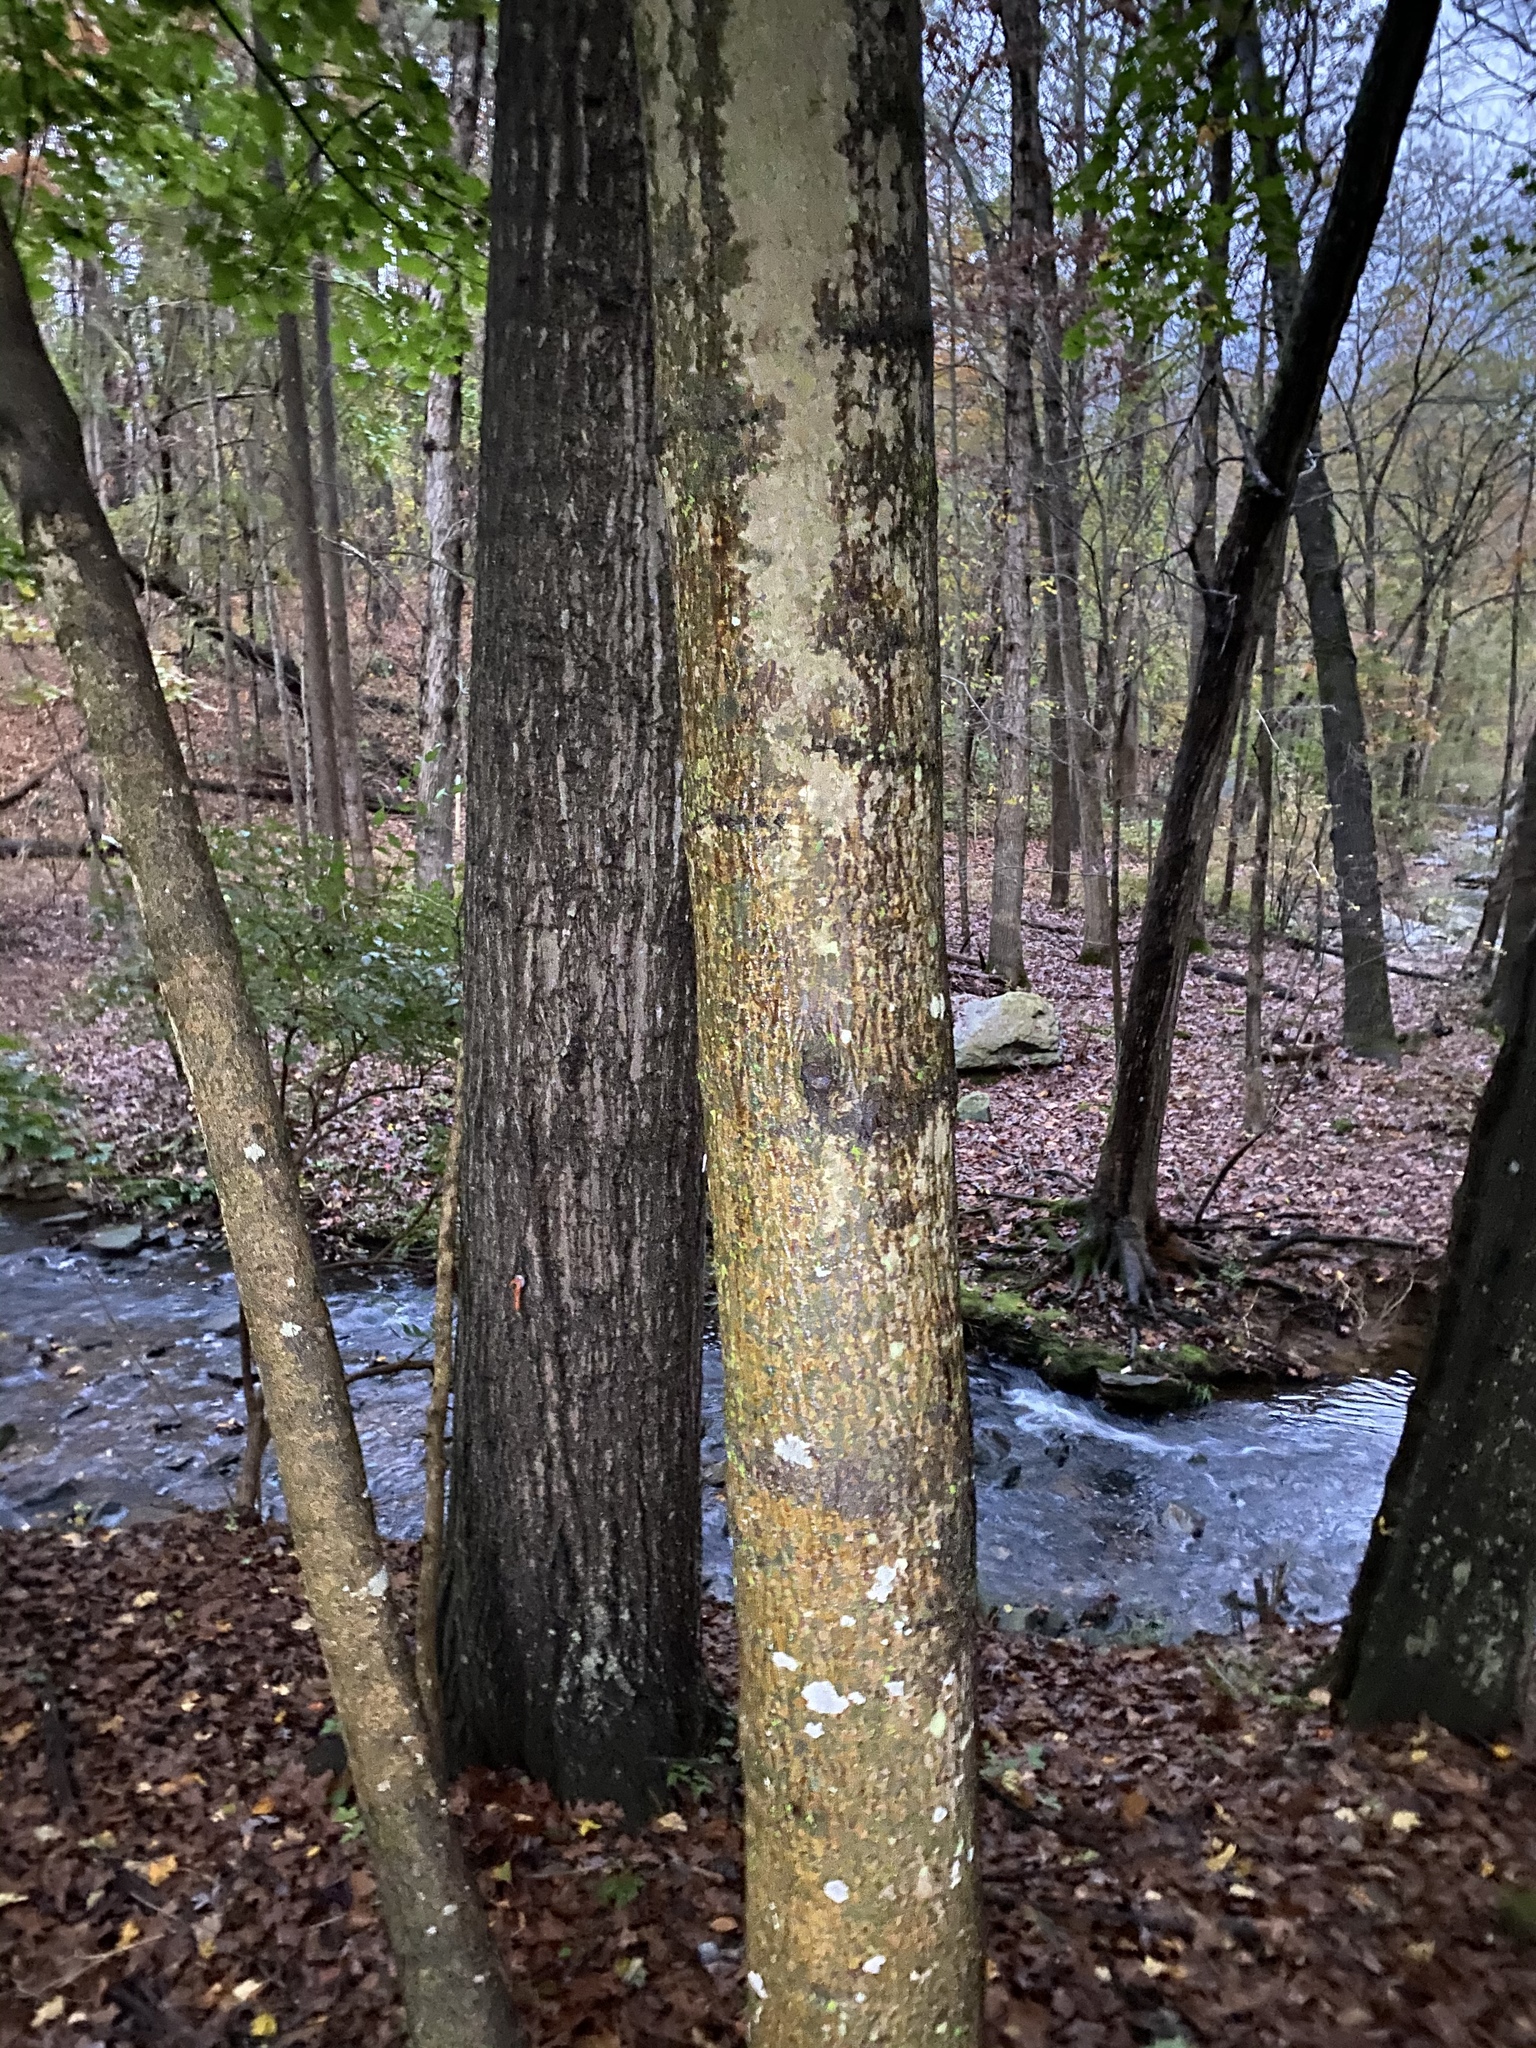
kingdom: Plantae
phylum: Tracheophyta
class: Magnoliopsida
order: Sapindales
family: Sapindaceae
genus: Acer
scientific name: Acer platanoides
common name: Norway maple
